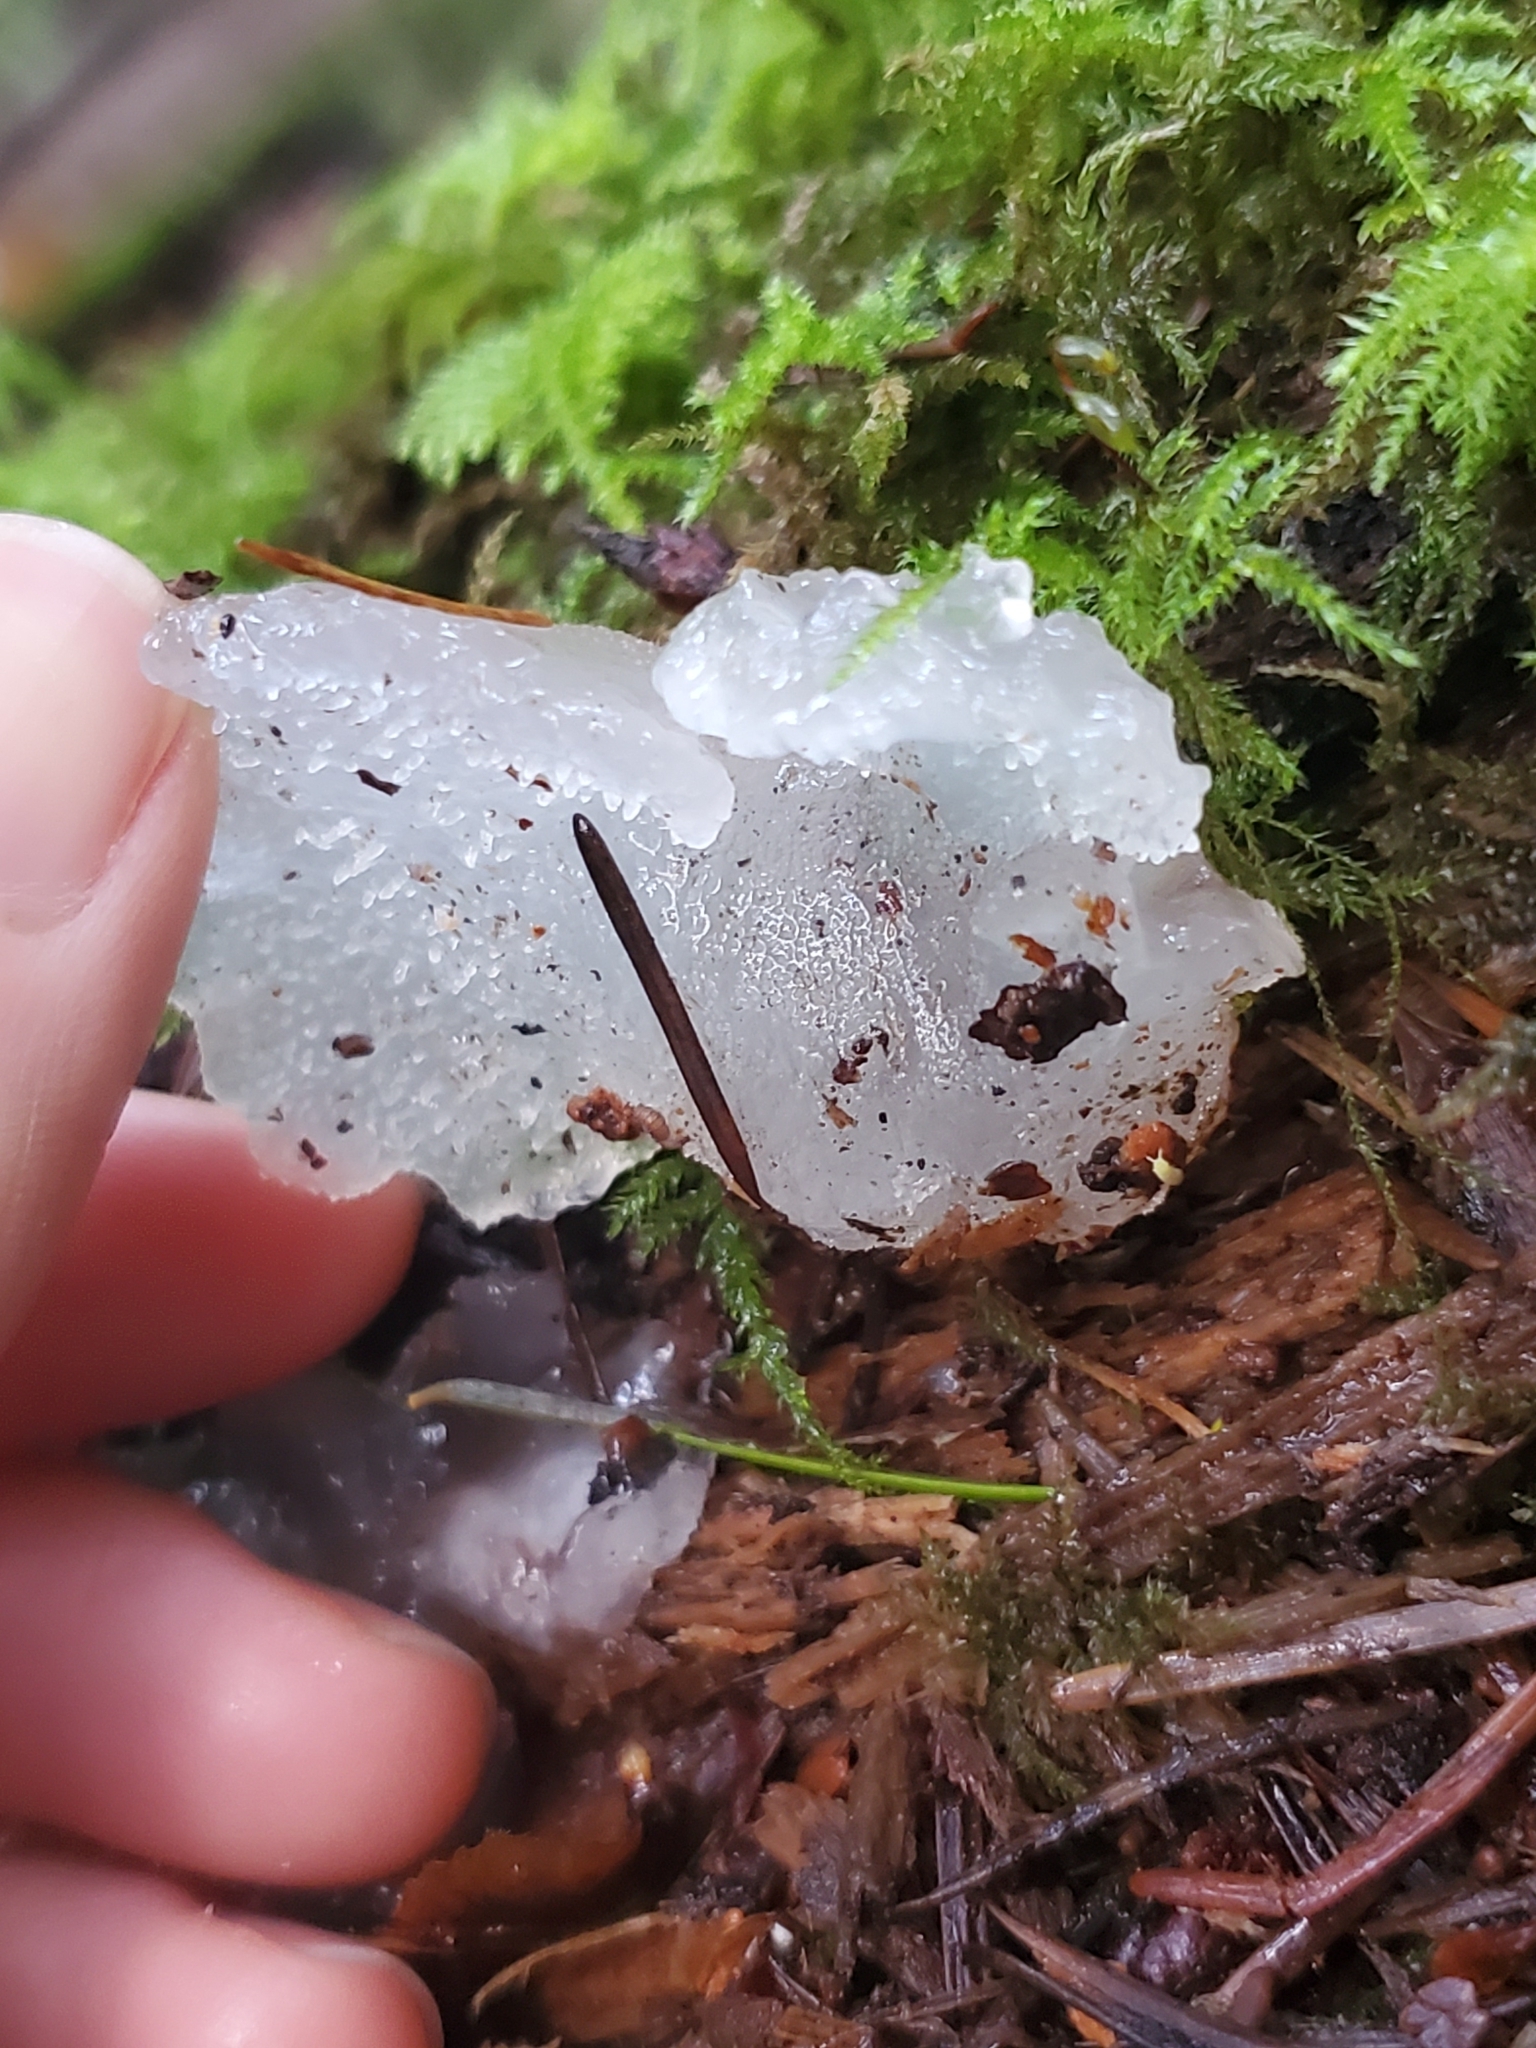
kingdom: Fungi
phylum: Basidiomycota
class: Agaricomycetes
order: Auriculariales
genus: Pseudohydnum
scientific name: Pseudohydnum gelatinosum
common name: Jelly tongue
